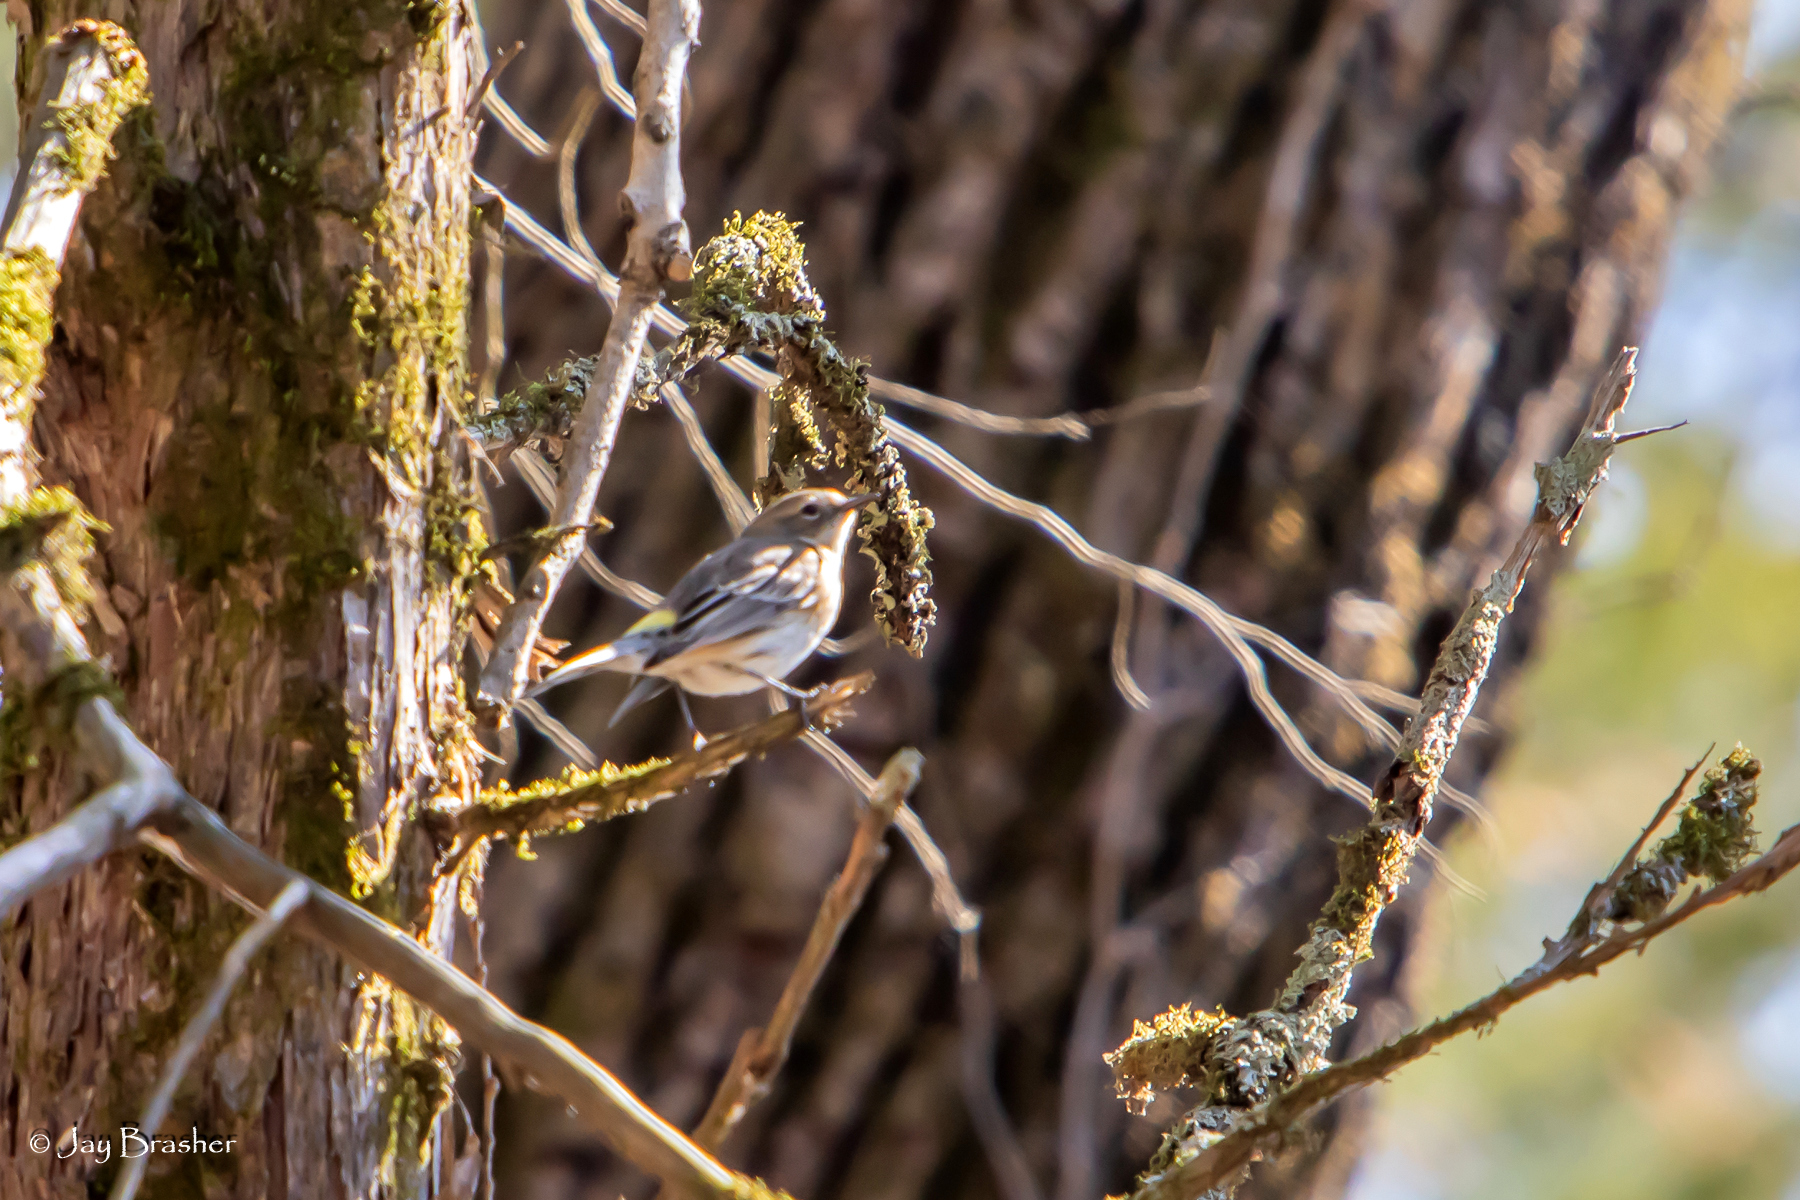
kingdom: Animalia
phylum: Chordata
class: Aves
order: Passeriformes
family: Parulidae
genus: Setophaga
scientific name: Setophaga coronata
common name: Myrtle warbler
